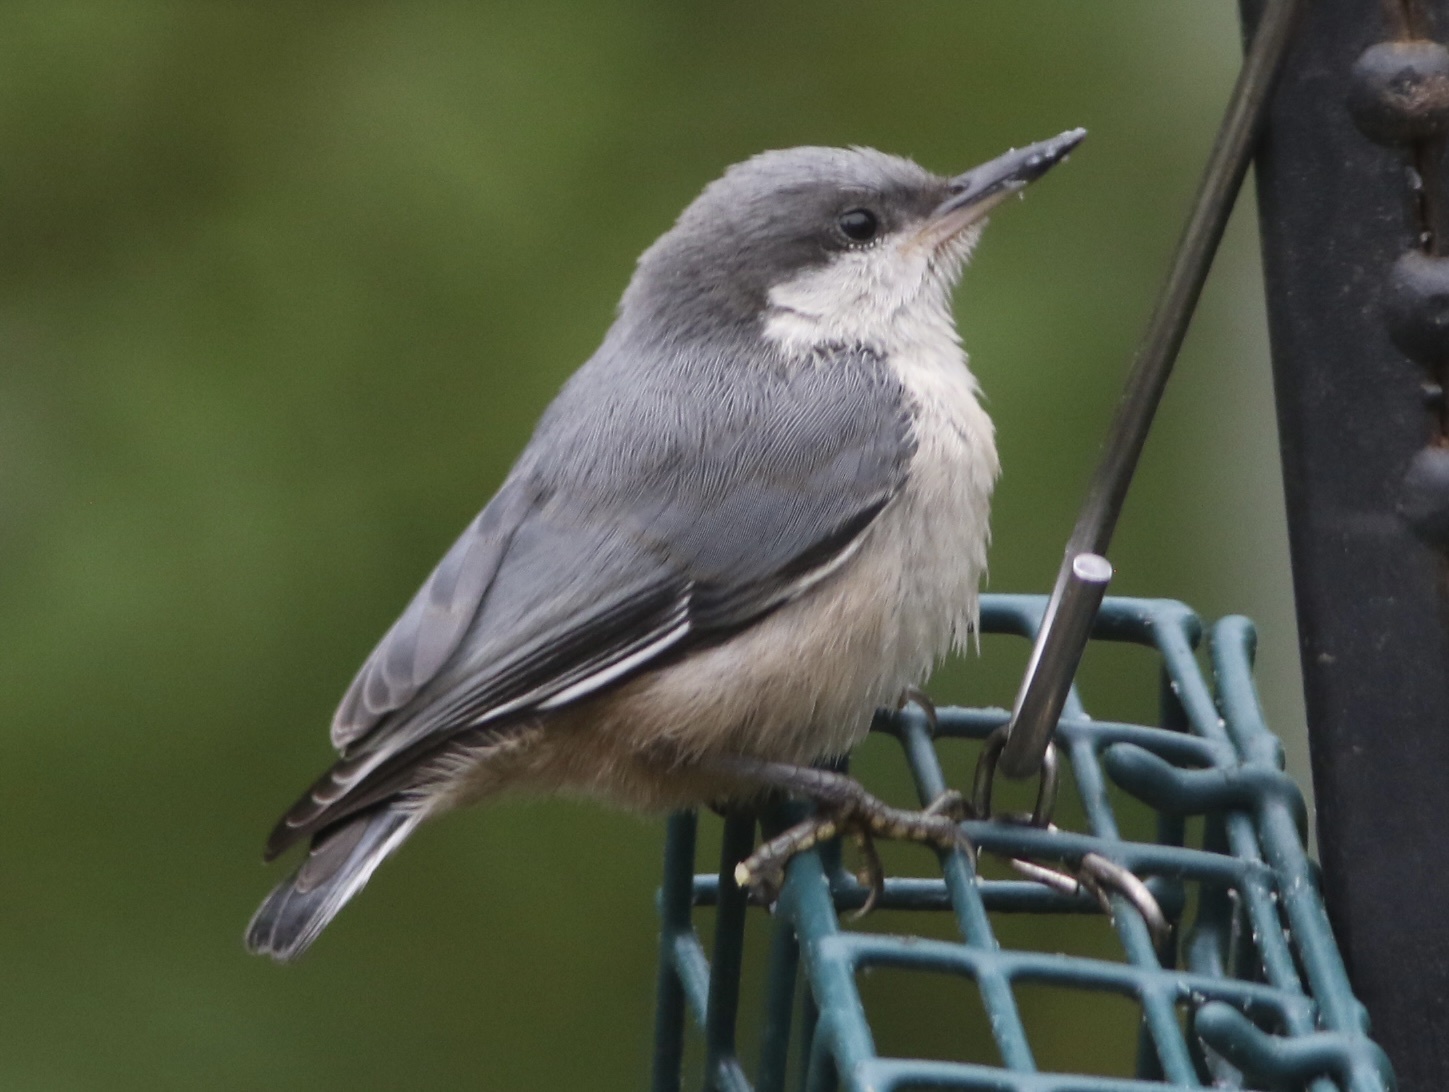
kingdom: Animalia
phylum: Chordata
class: Aves
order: Passeriformes
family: Sittidae
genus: Sitta
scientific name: Sitta pygmaea
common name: Pygmy nuthatch
